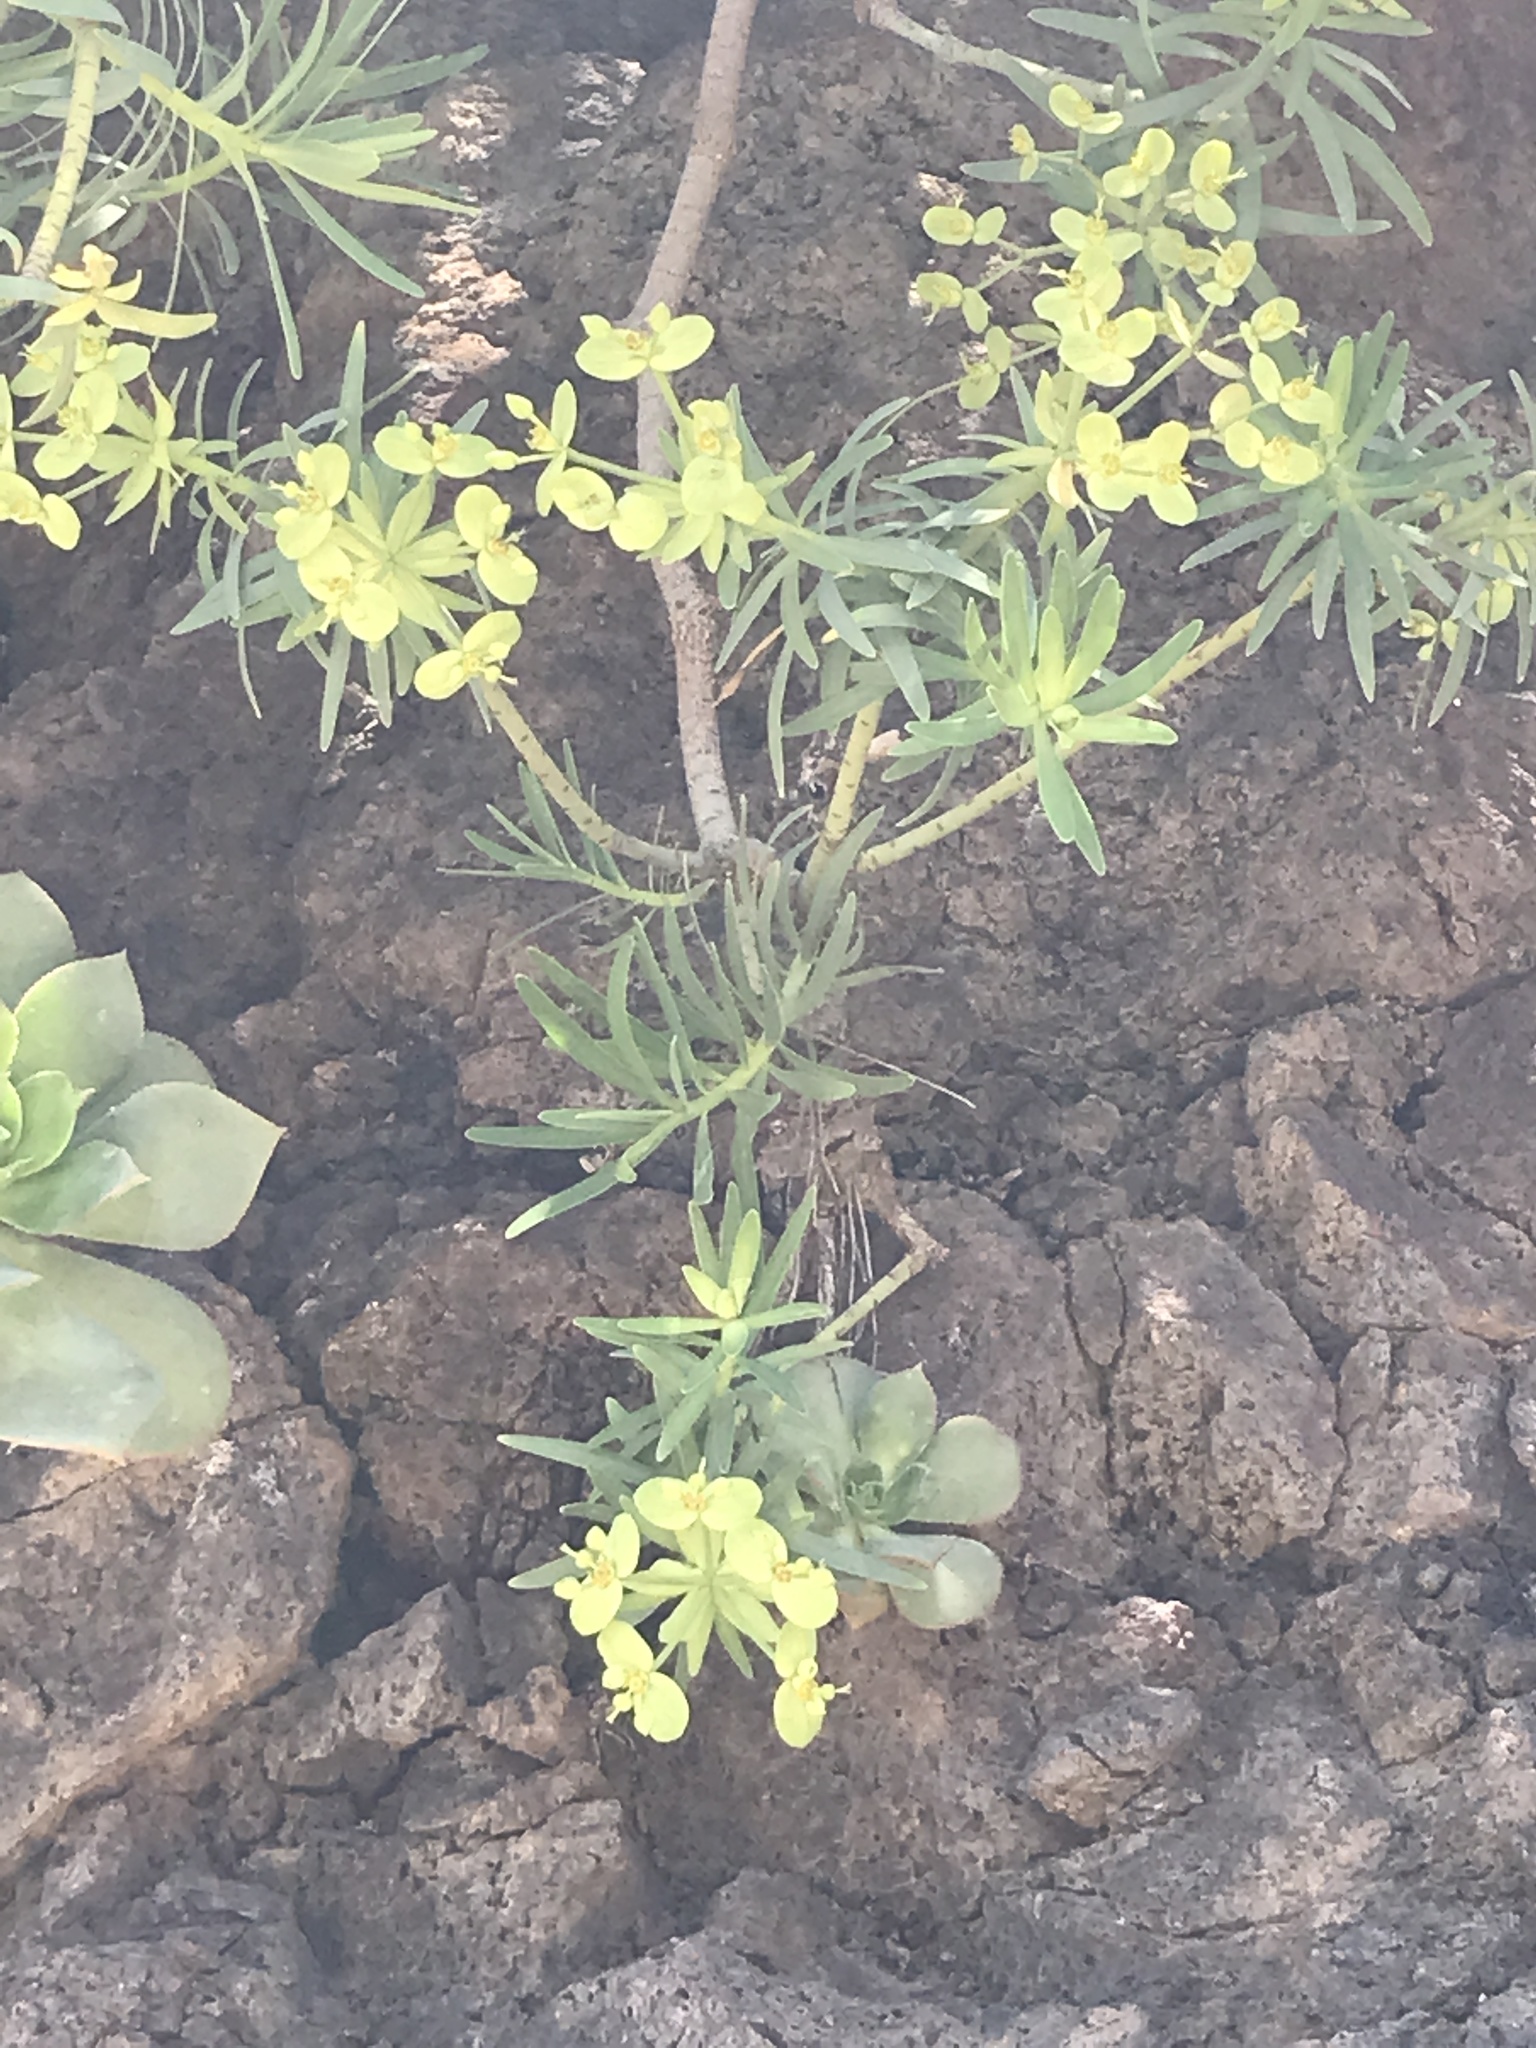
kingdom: Plantae
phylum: Tracheophyta
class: Magnoliopsida
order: Malpighiales
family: Euphorbiaceae
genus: Euphorbia
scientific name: Euphorbia regis-jubae
